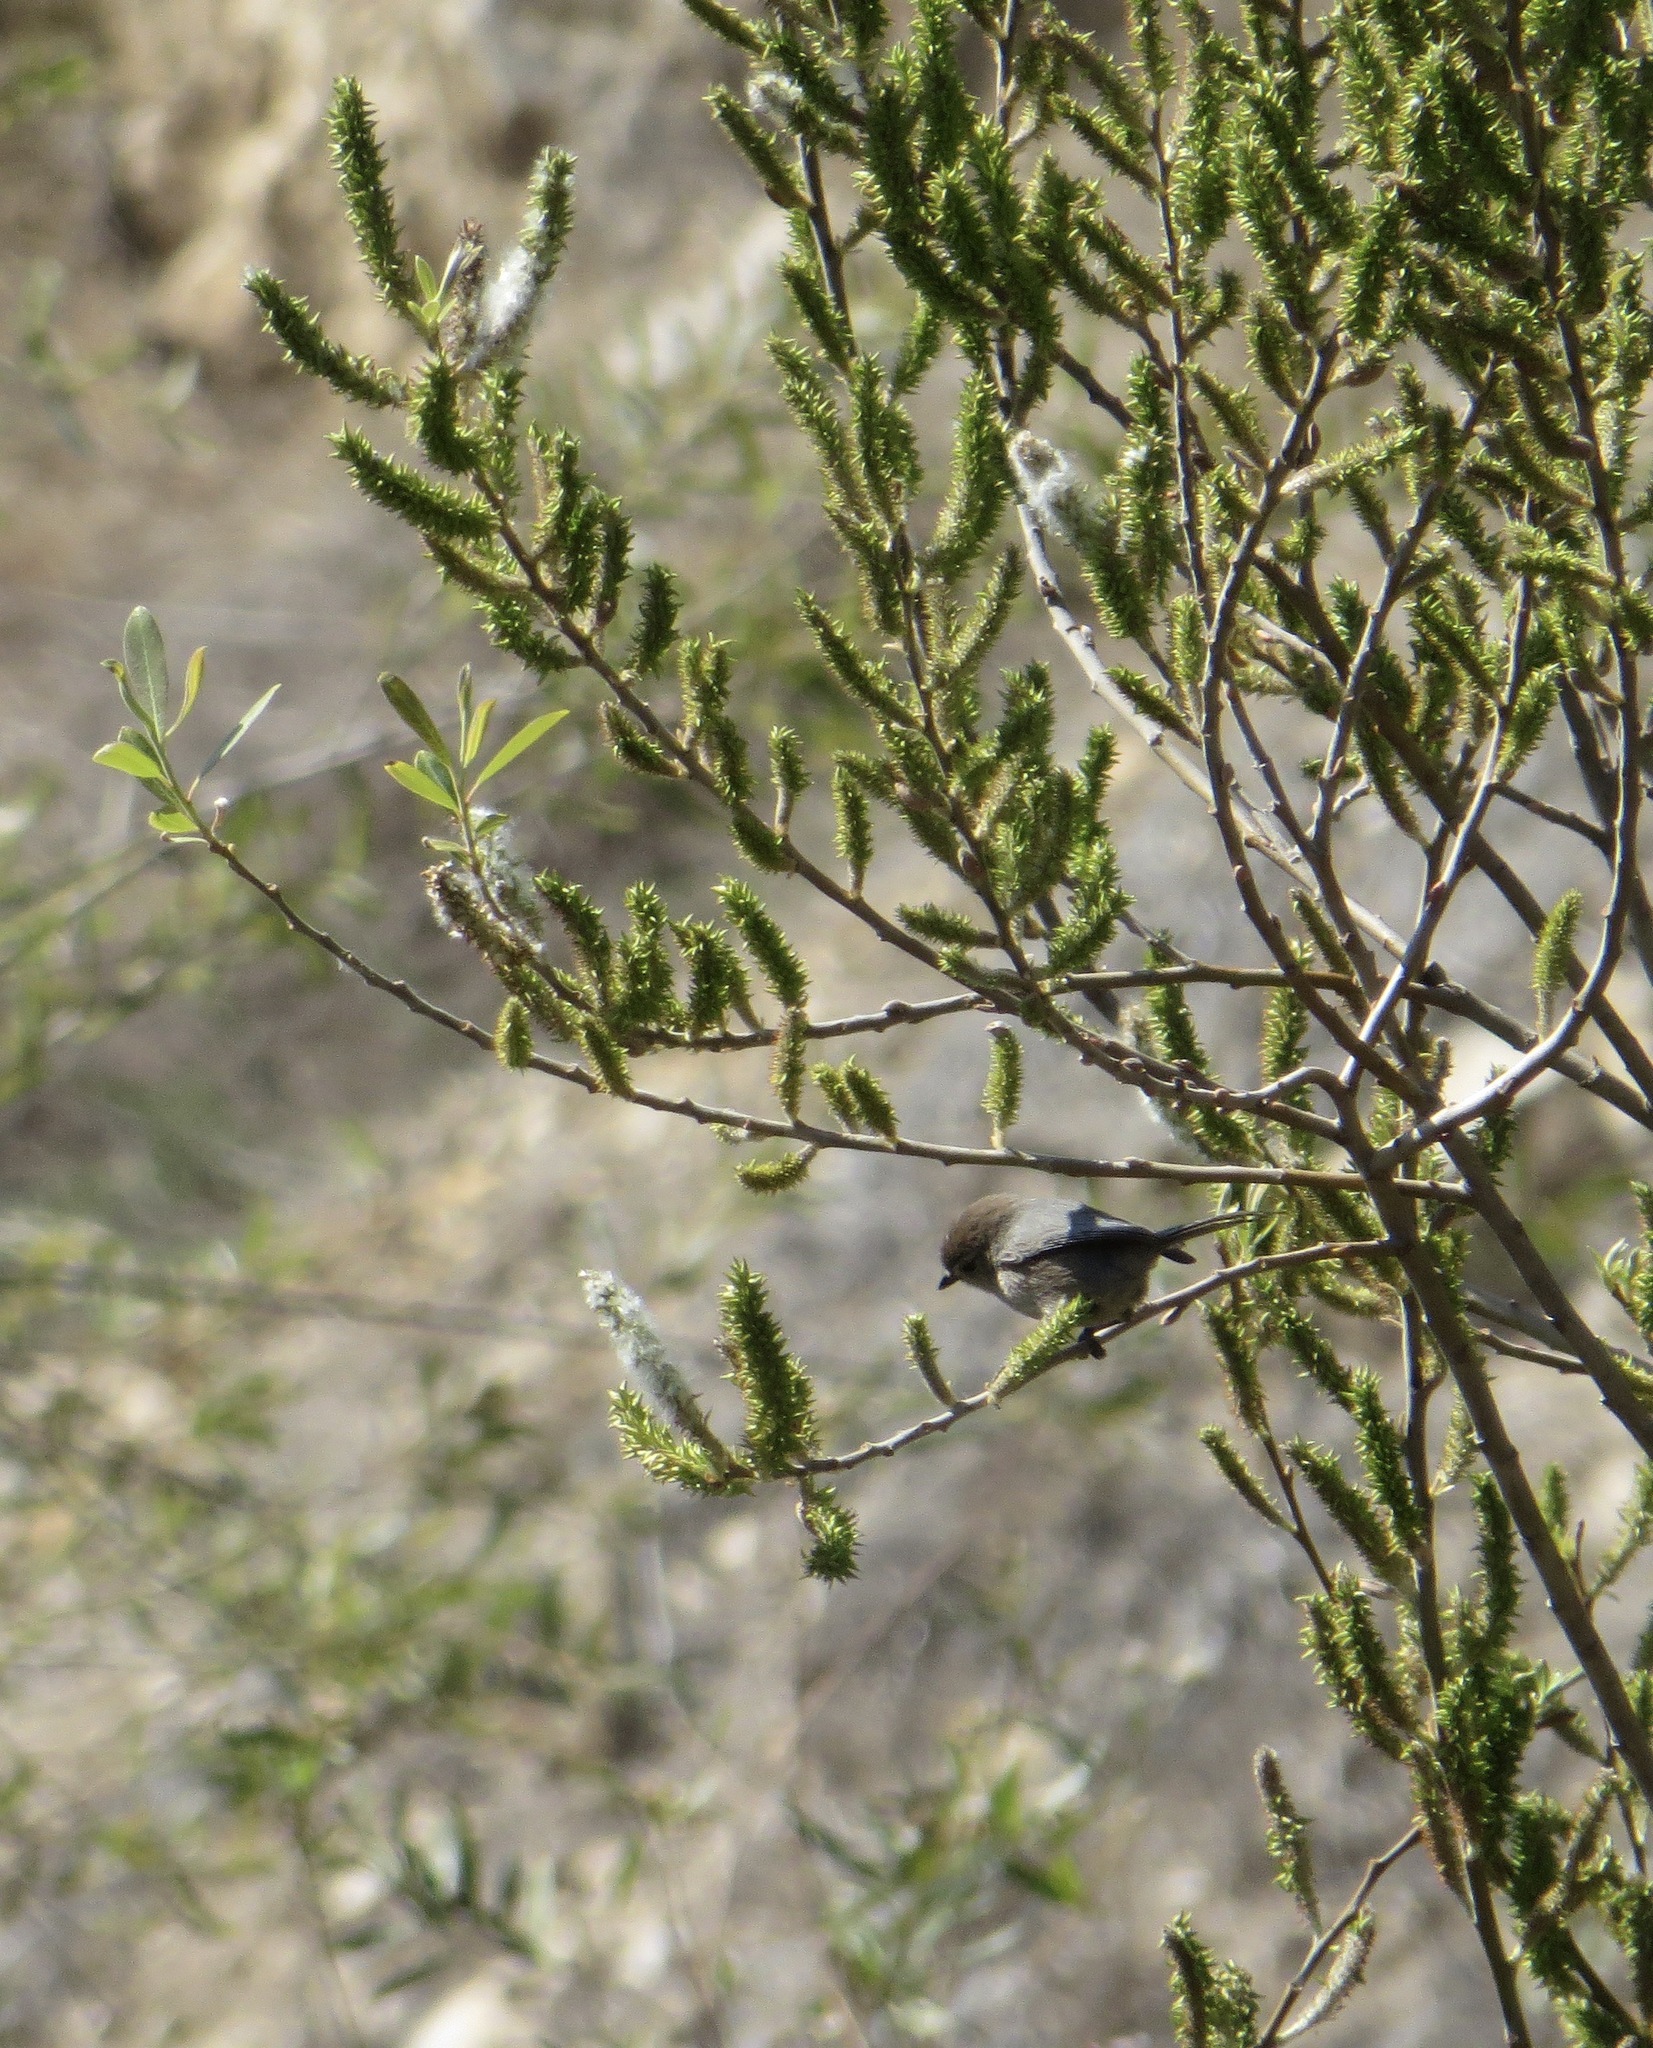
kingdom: Animalia
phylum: Chordata
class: Aves
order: Passeriformes
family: Aegithalidae
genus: Psaltriparus
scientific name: Psaltriparus minimus
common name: American bushtit
